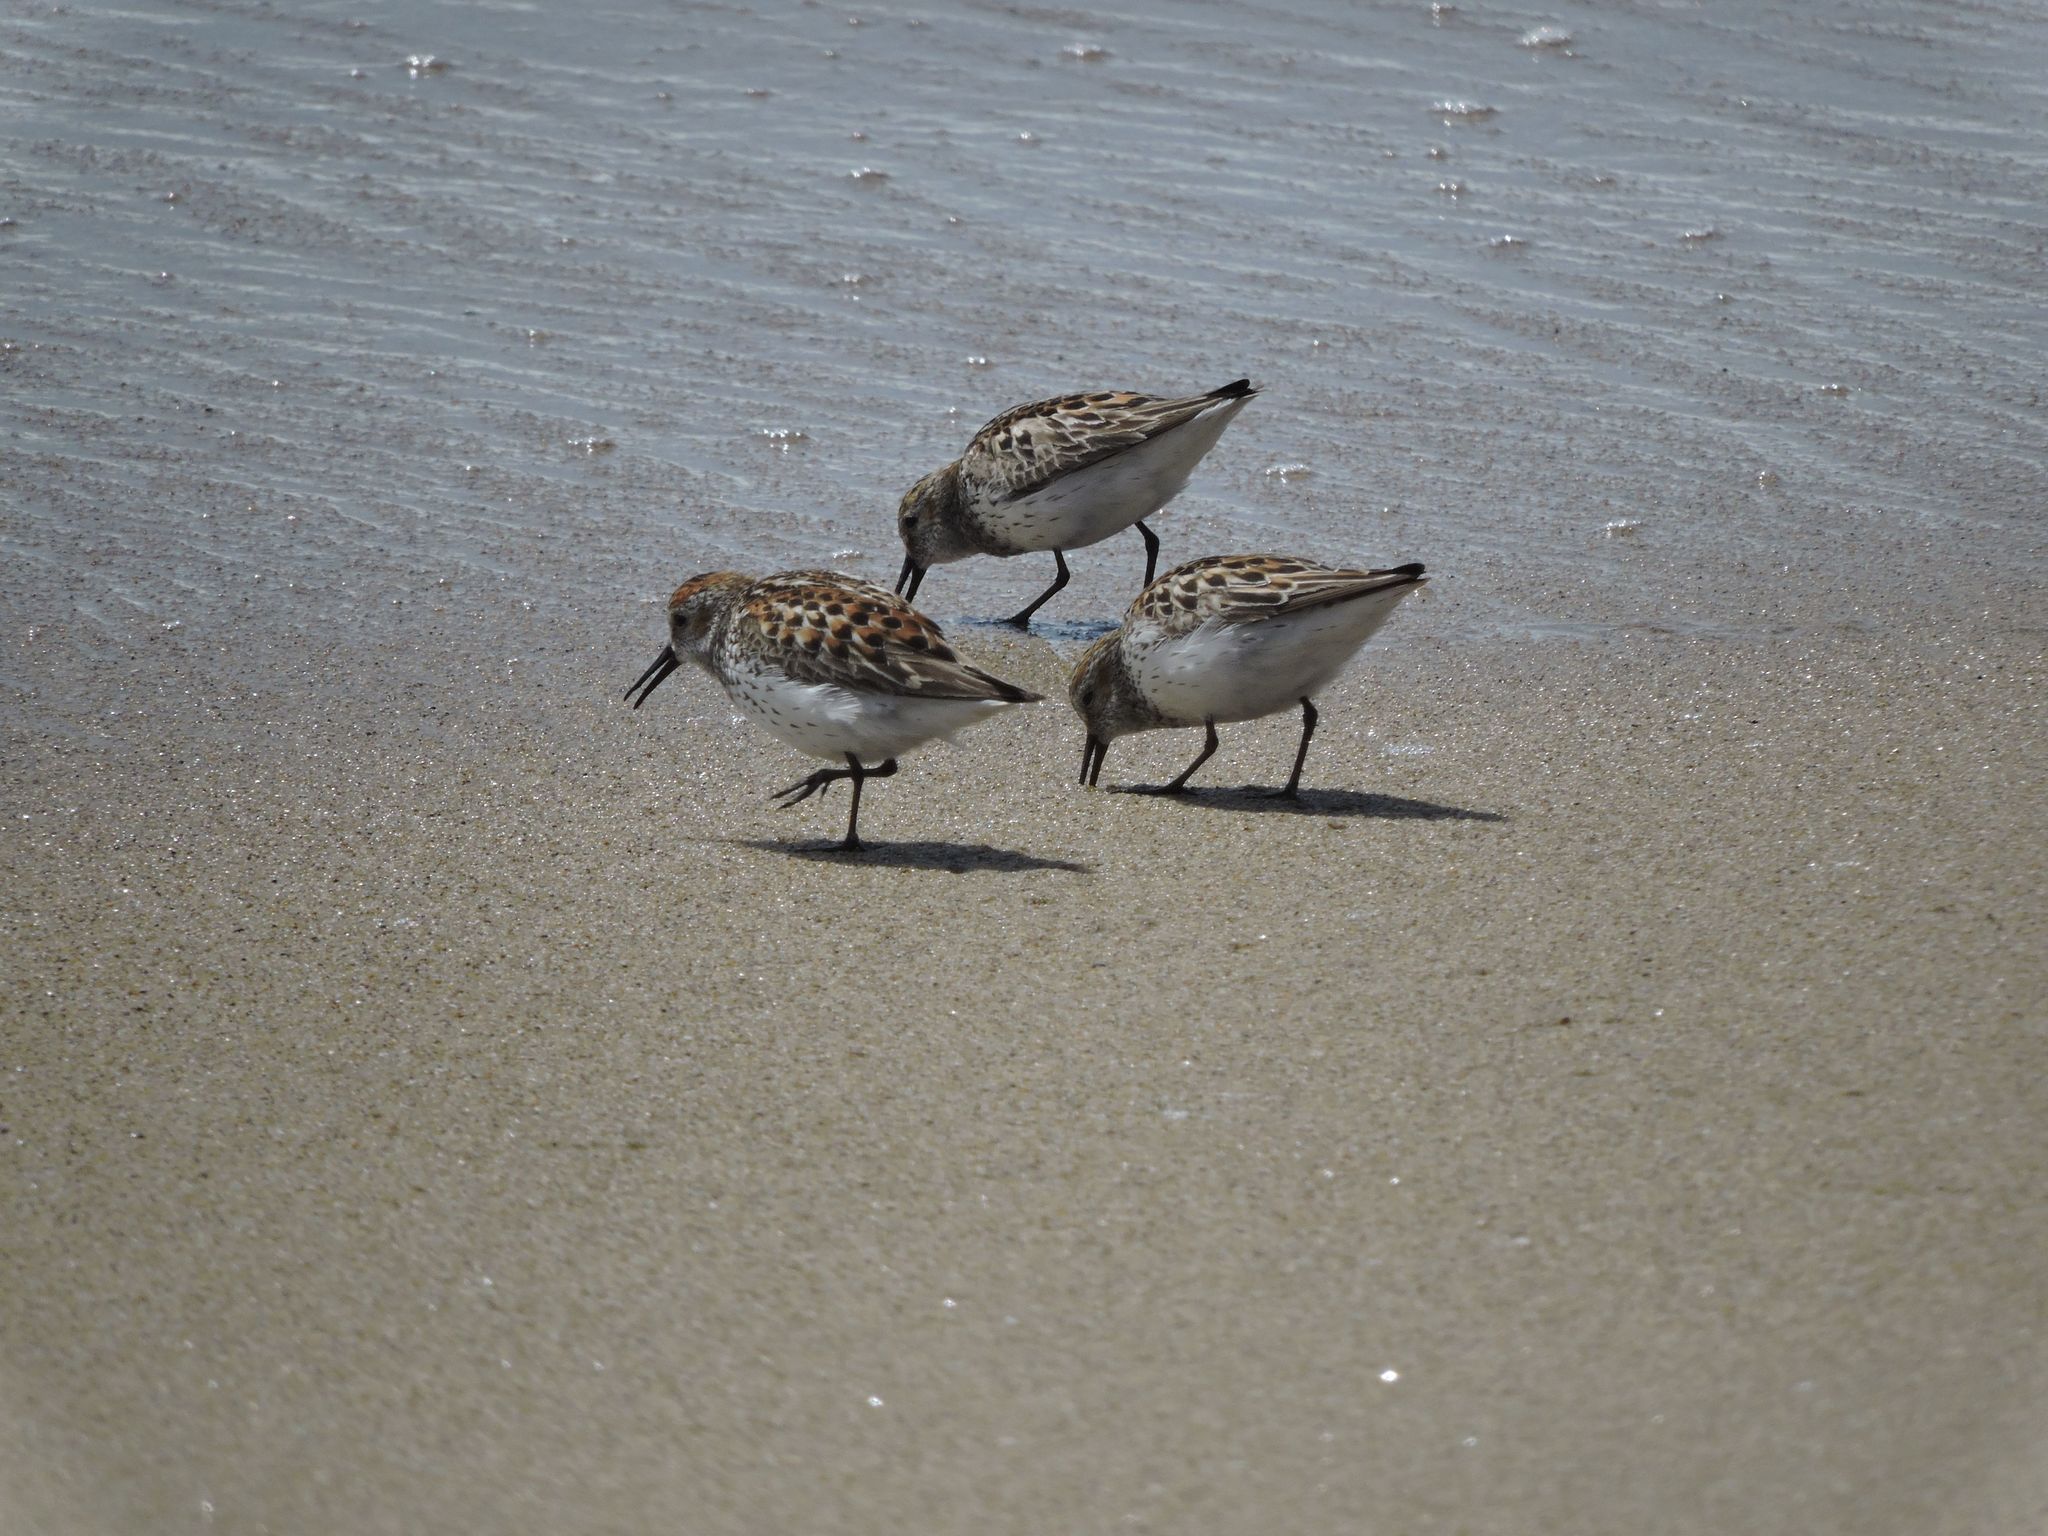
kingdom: Animalia
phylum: Chordata
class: Aves
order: Charadriiformes
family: Scolopacidae
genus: Calidris
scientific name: Calidris mauri
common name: Western sandpiper
